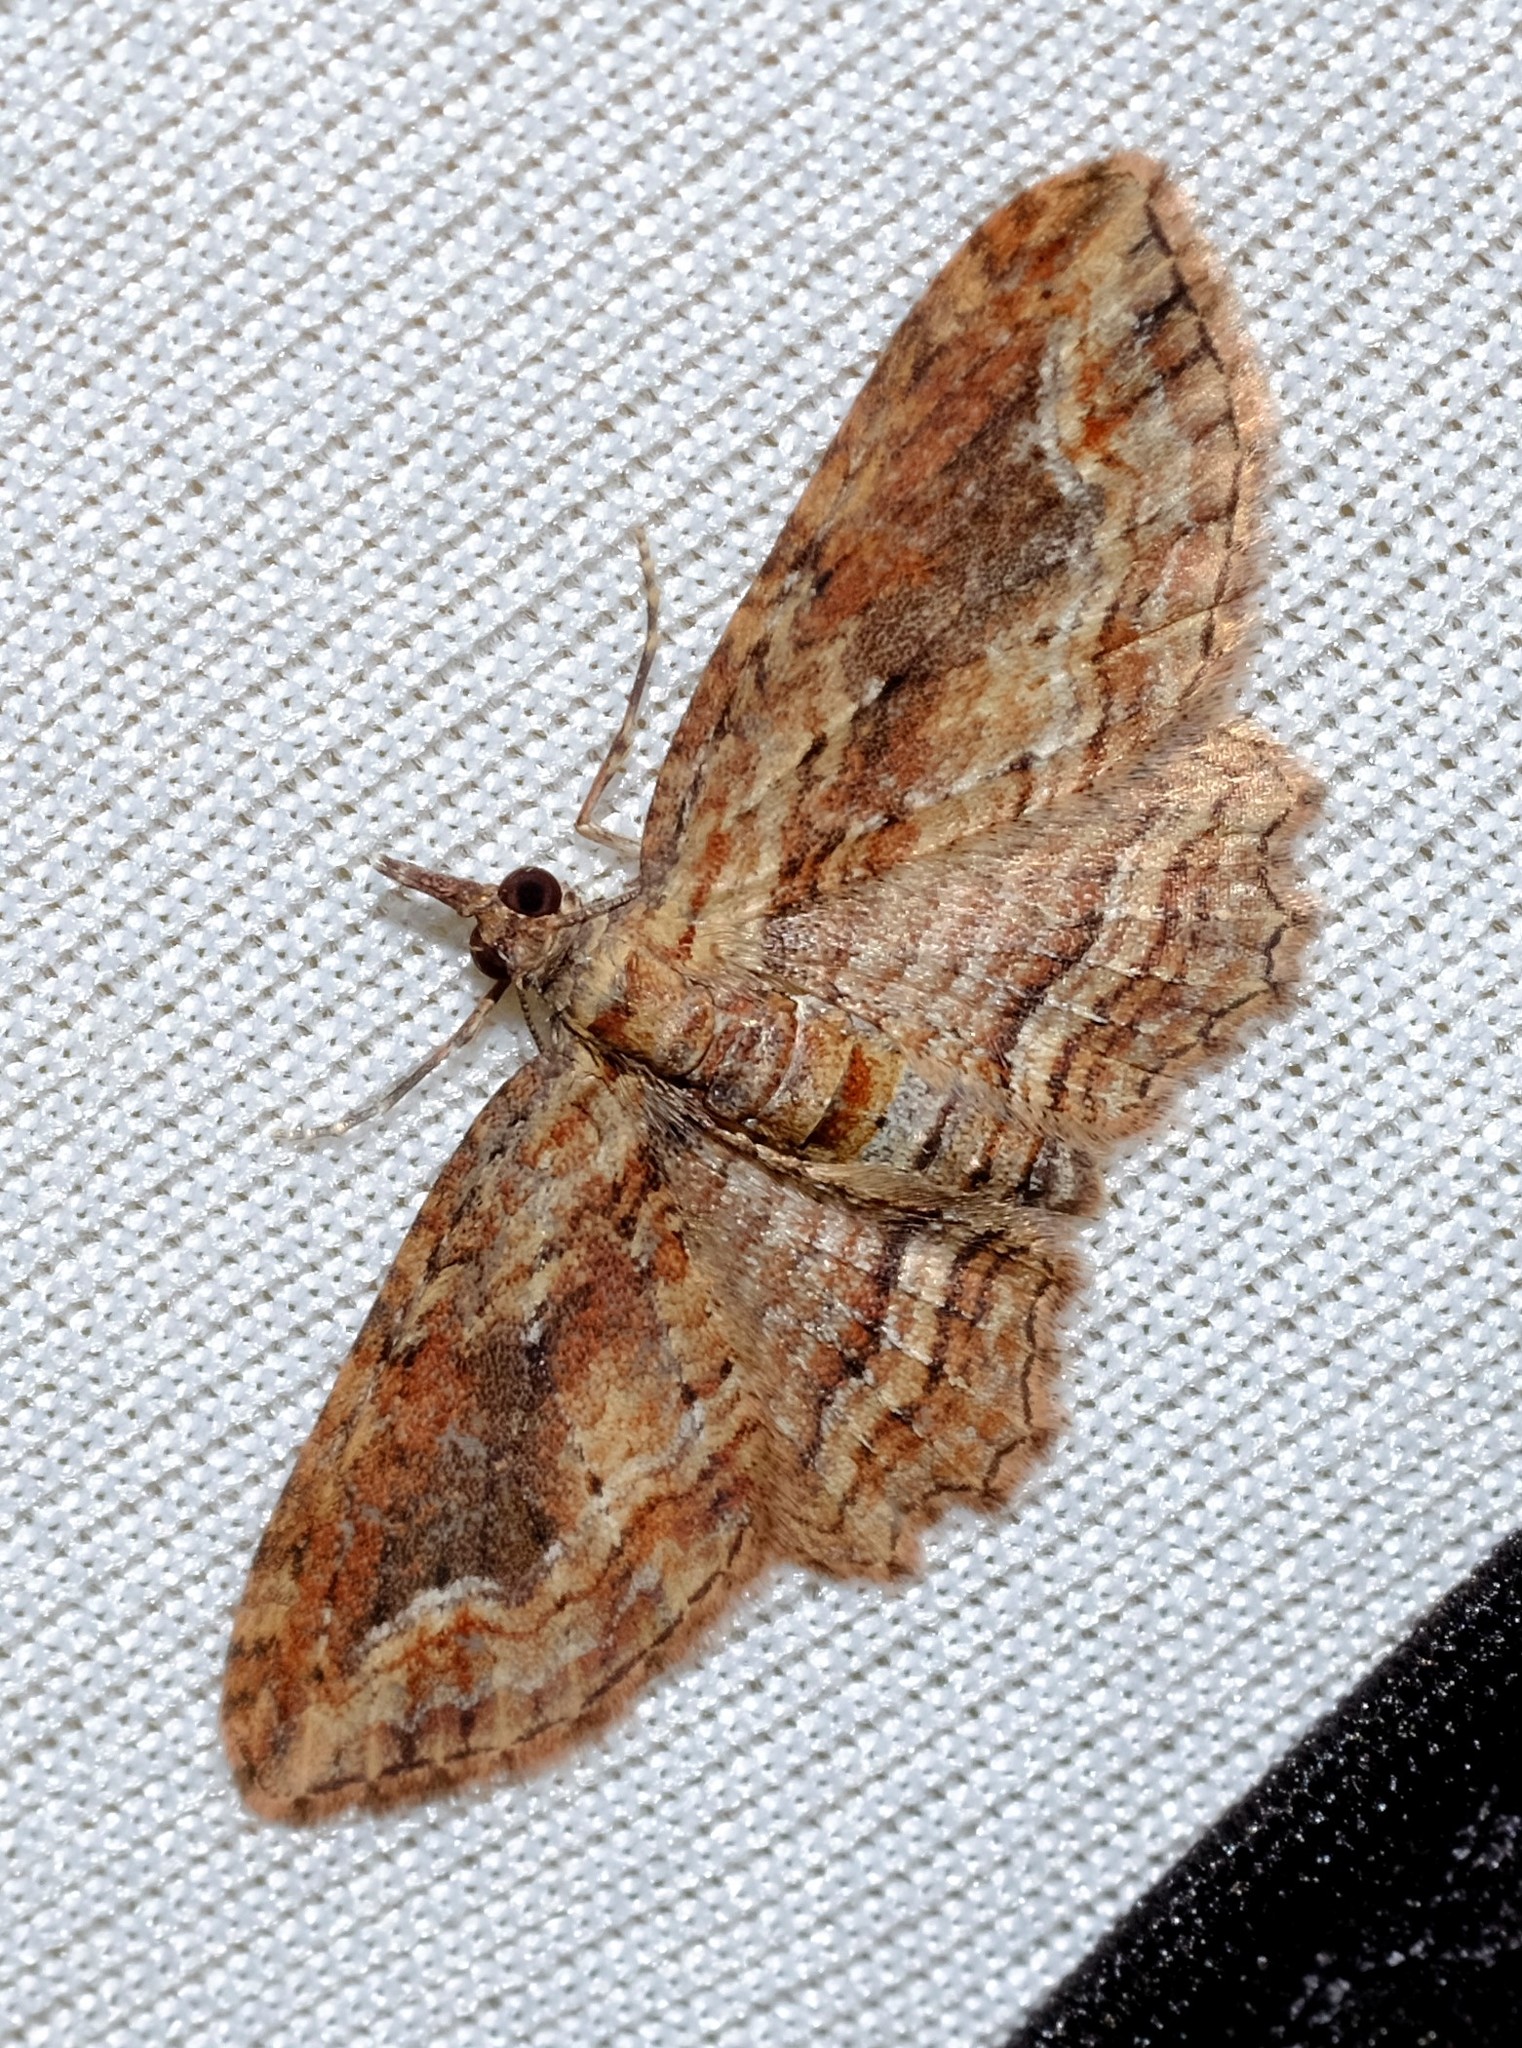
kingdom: Animalia
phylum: Arthropoda
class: Insecta
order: Lepidoptera
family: Geometridae
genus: Chloroclystis
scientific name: Chloroclystis filata
